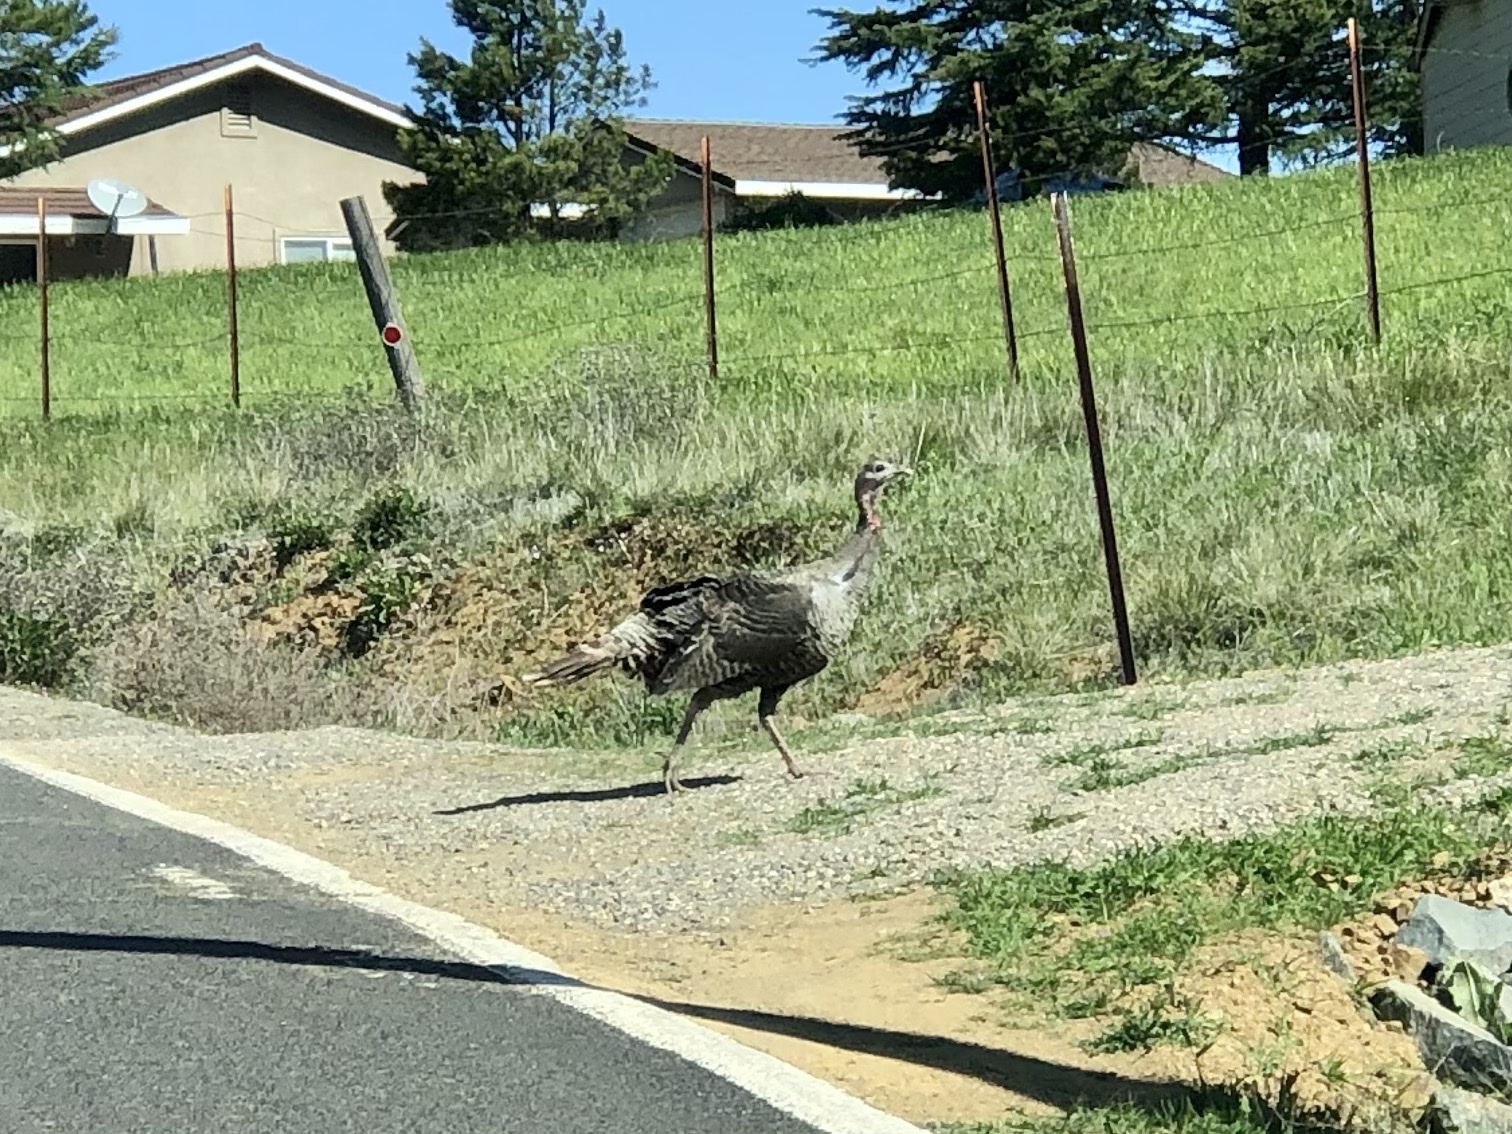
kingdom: Animalia
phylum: Chordata
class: Aves
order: Galliformes
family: Phasianidae
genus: Meleagris
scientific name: Meleagris gallopavo
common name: Wild turkey
